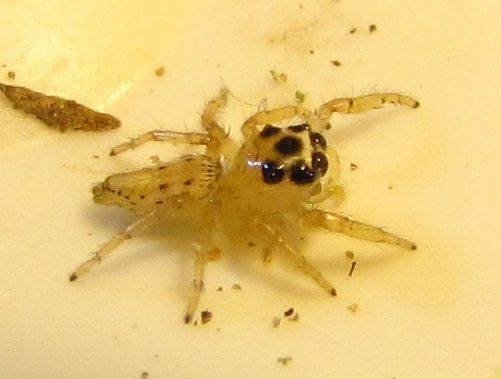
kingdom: Animalia
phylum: Arthropoda
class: Arachnida
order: Araneae
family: Salticidae
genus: Colonus
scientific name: Colonus sylvanus
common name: Jumping spiders
